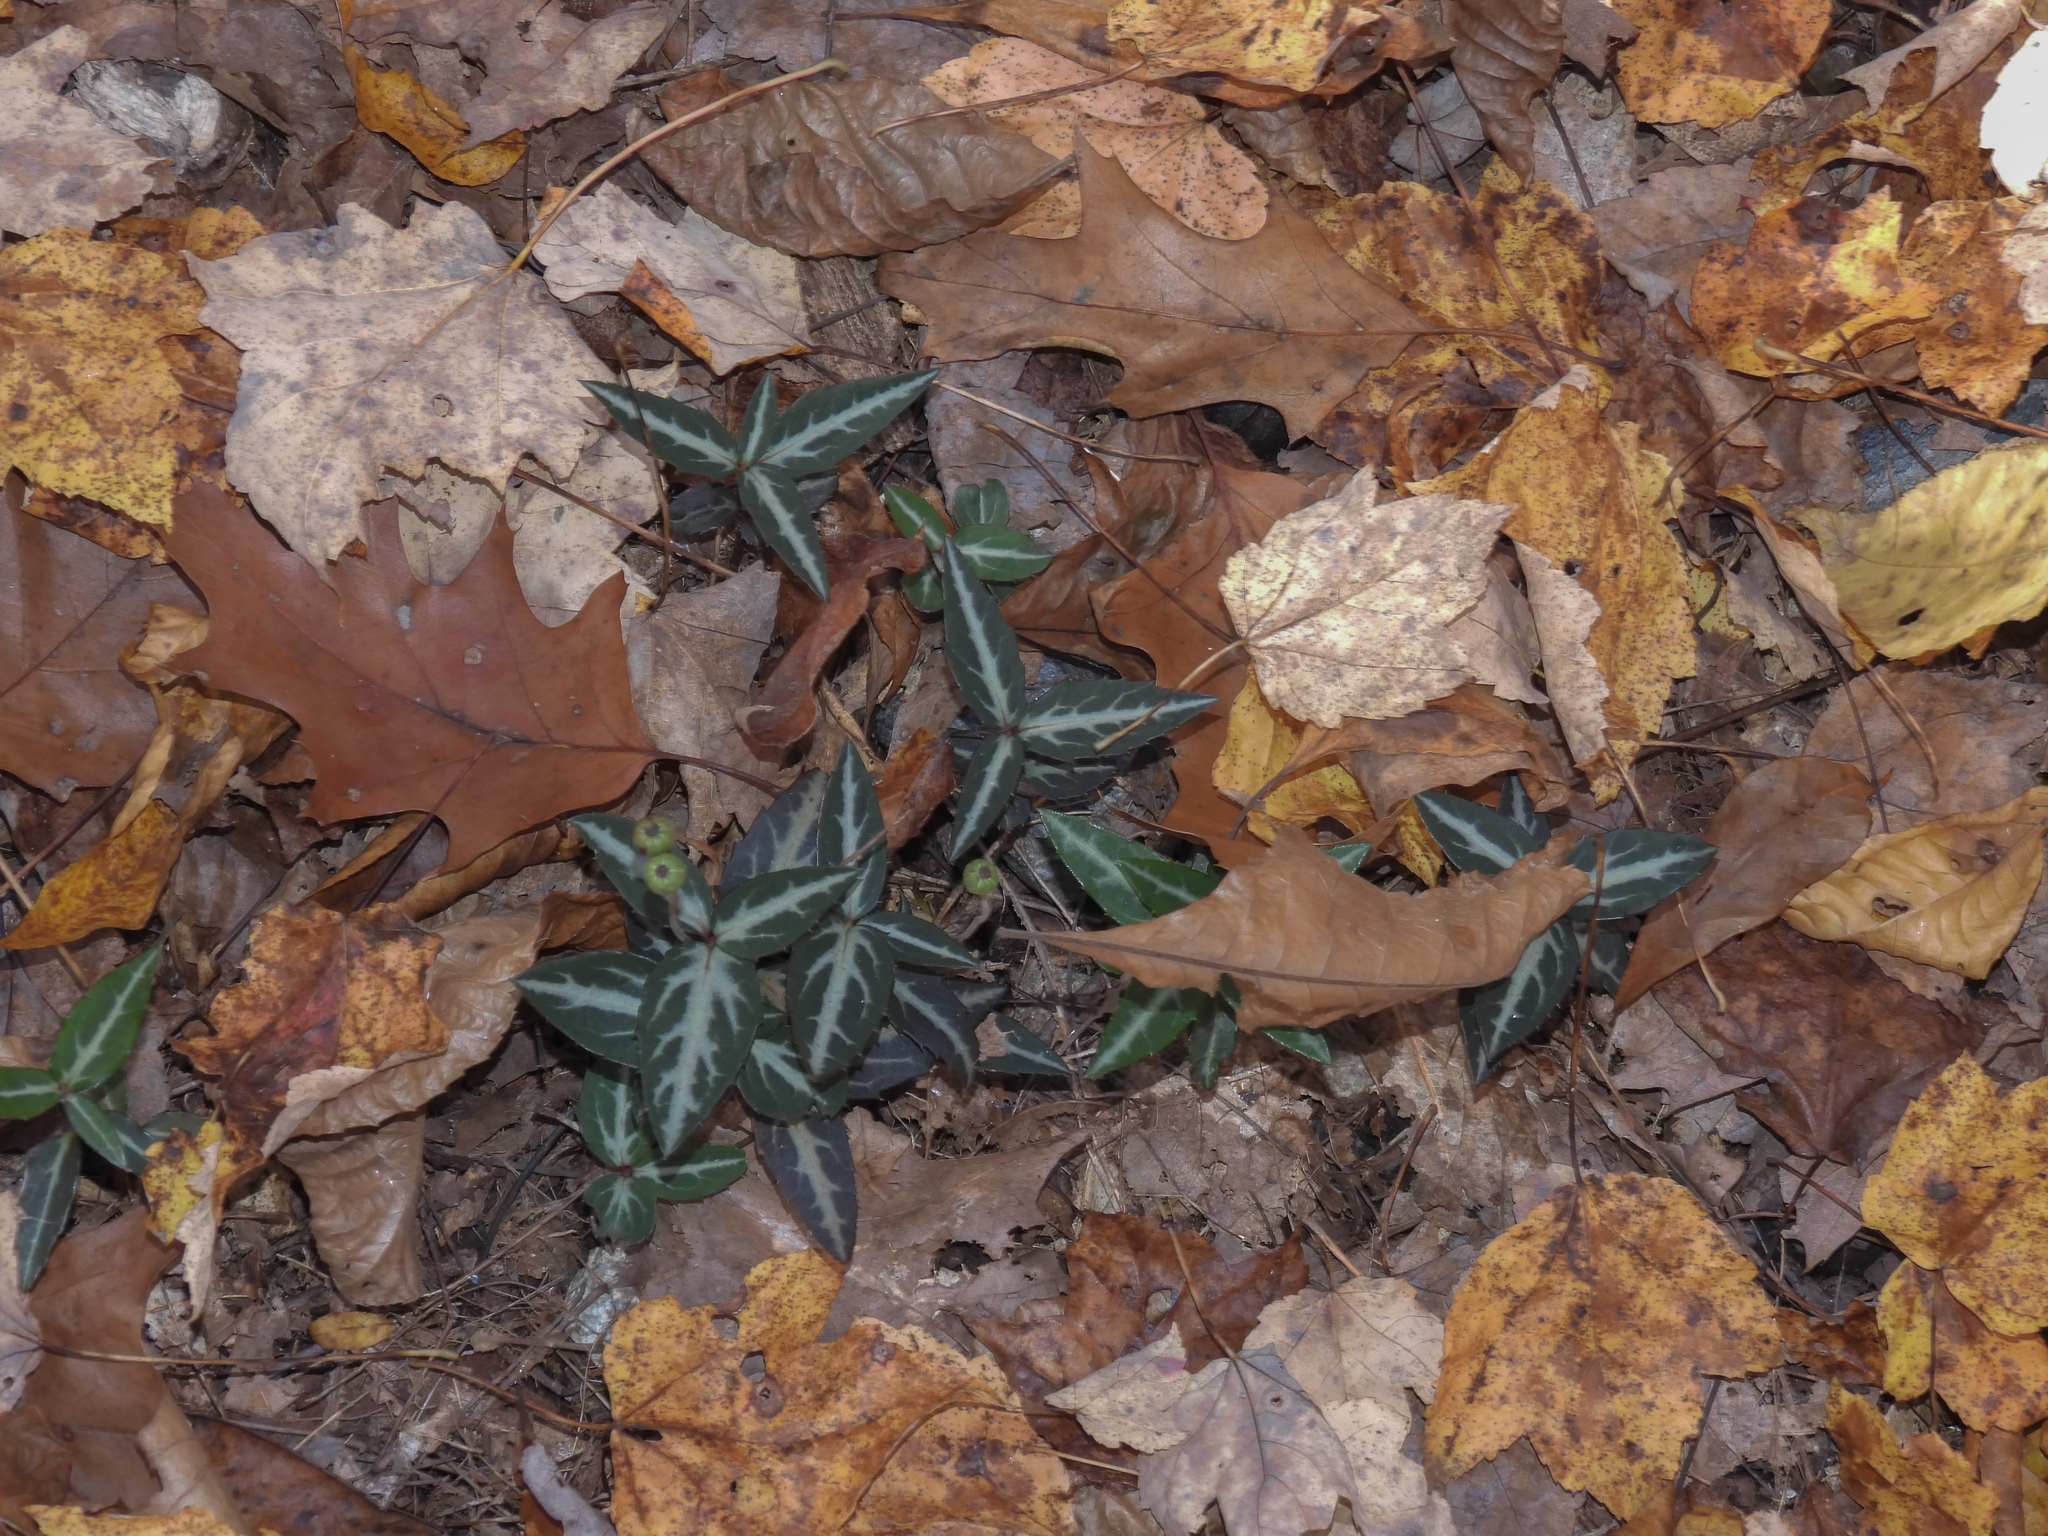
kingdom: Plantae
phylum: Tracheophyta
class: Magnoliopsida
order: Ericales
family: Ericaceae
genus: Chimaphila
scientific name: Chimaphila maculata
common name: Spotted pipsissewa
